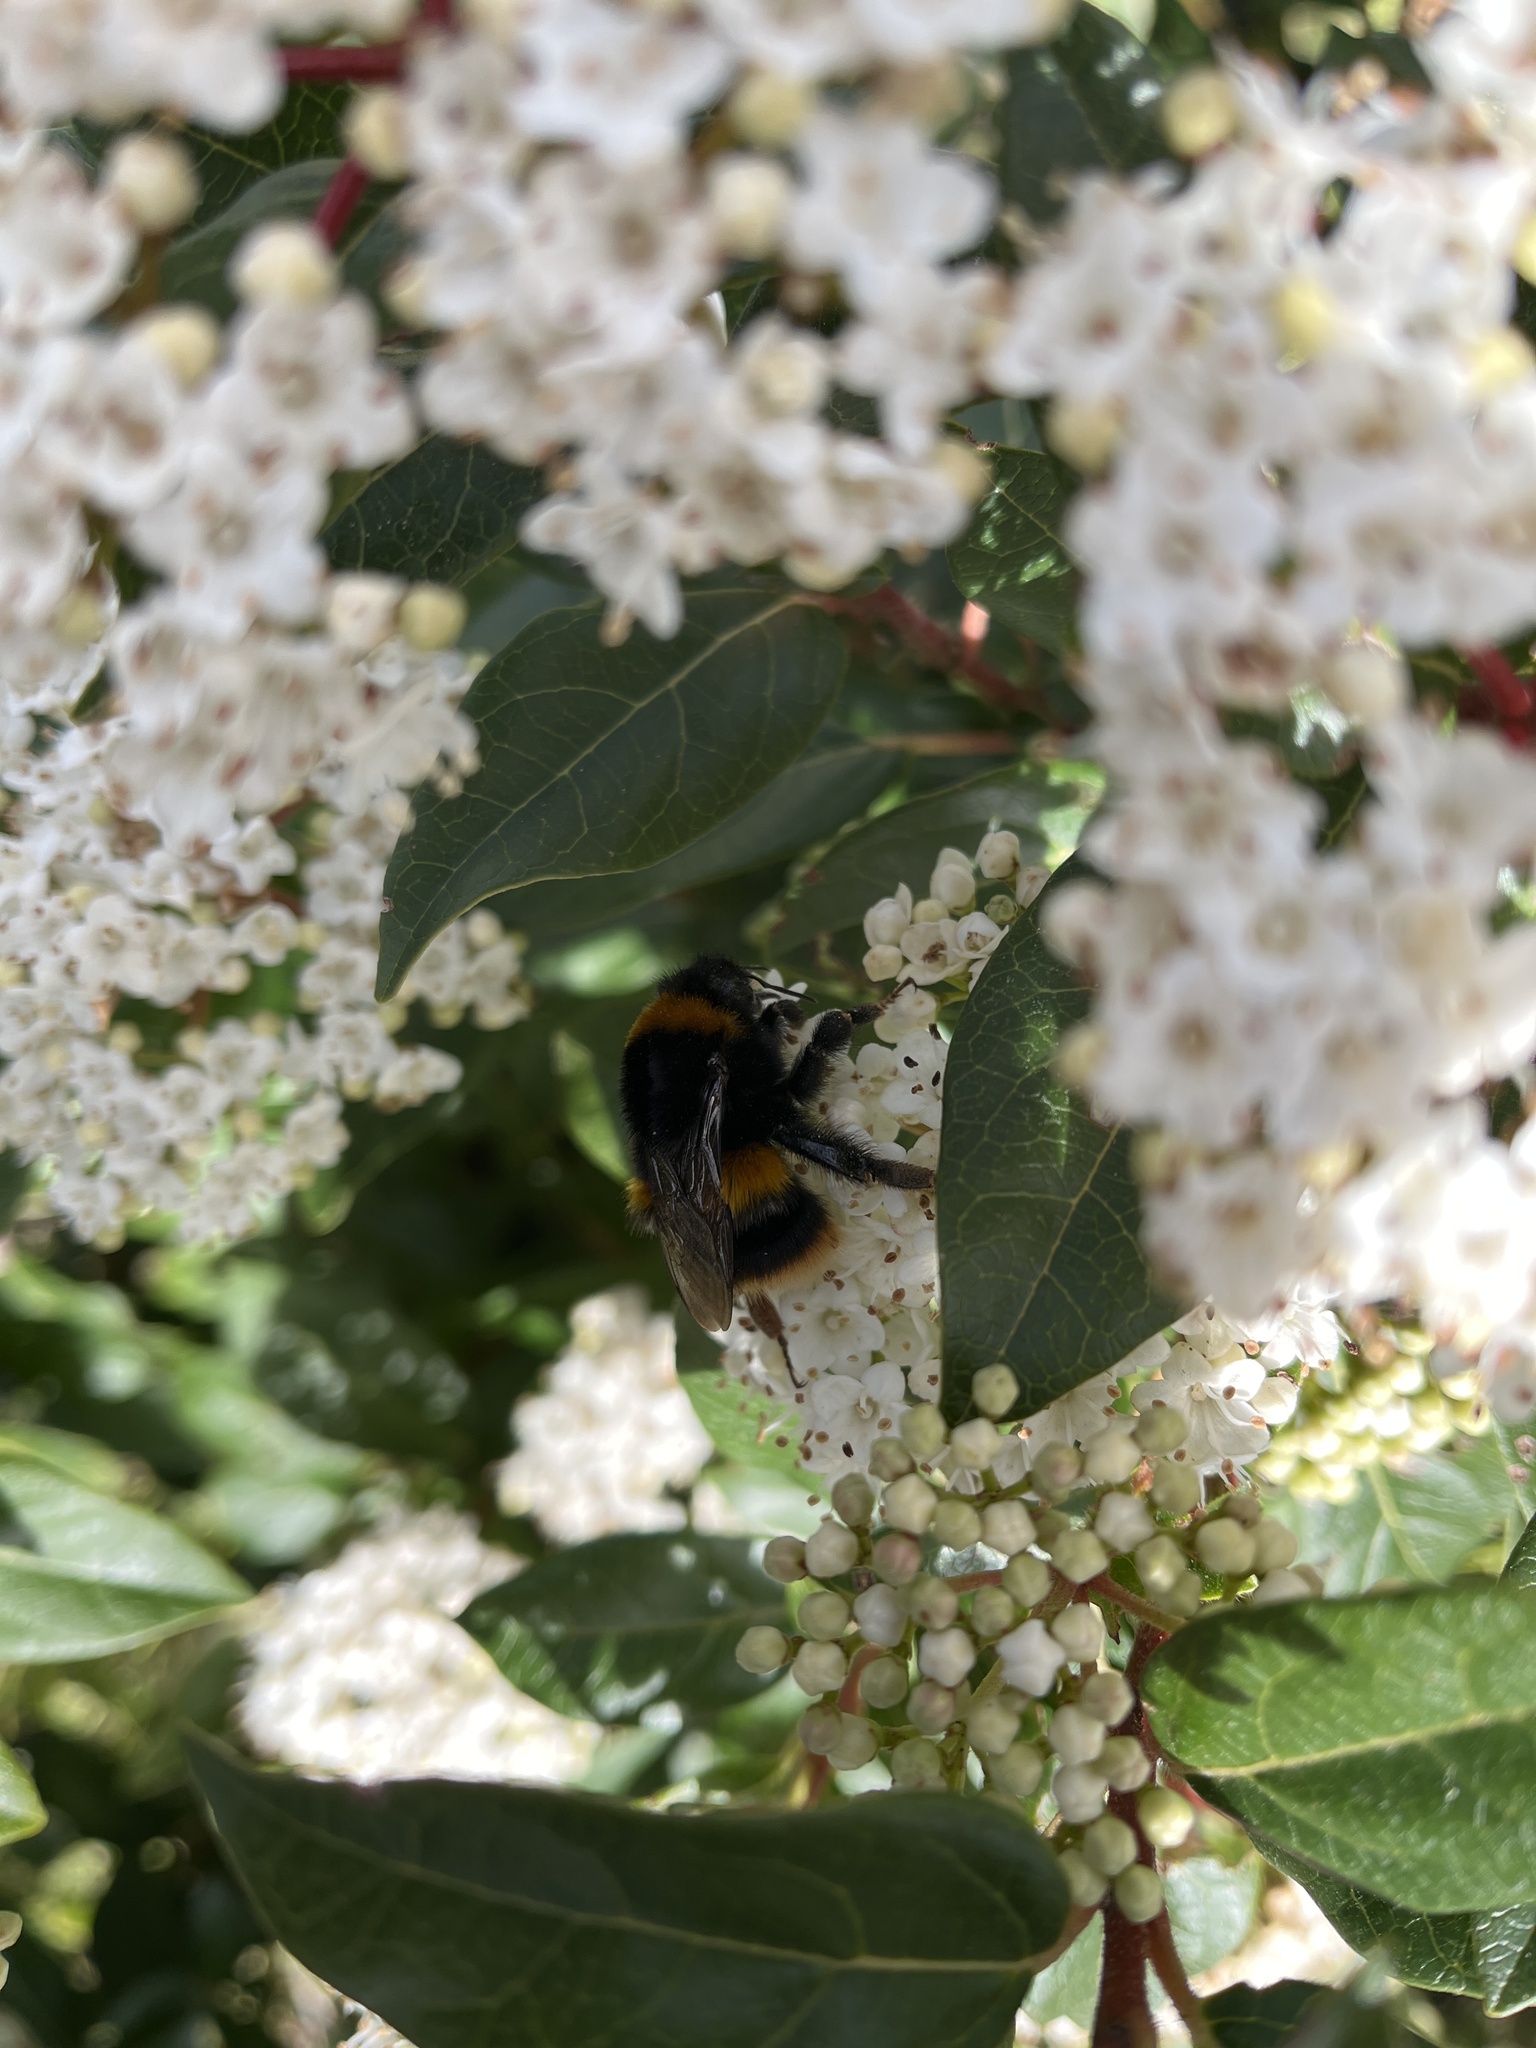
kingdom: Animalia
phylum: Arthropoda
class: Insecta
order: Hymenoptera
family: Apidae
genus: Bombus
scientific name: Bombus terrestris
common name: Buff-tailed bumblebee
